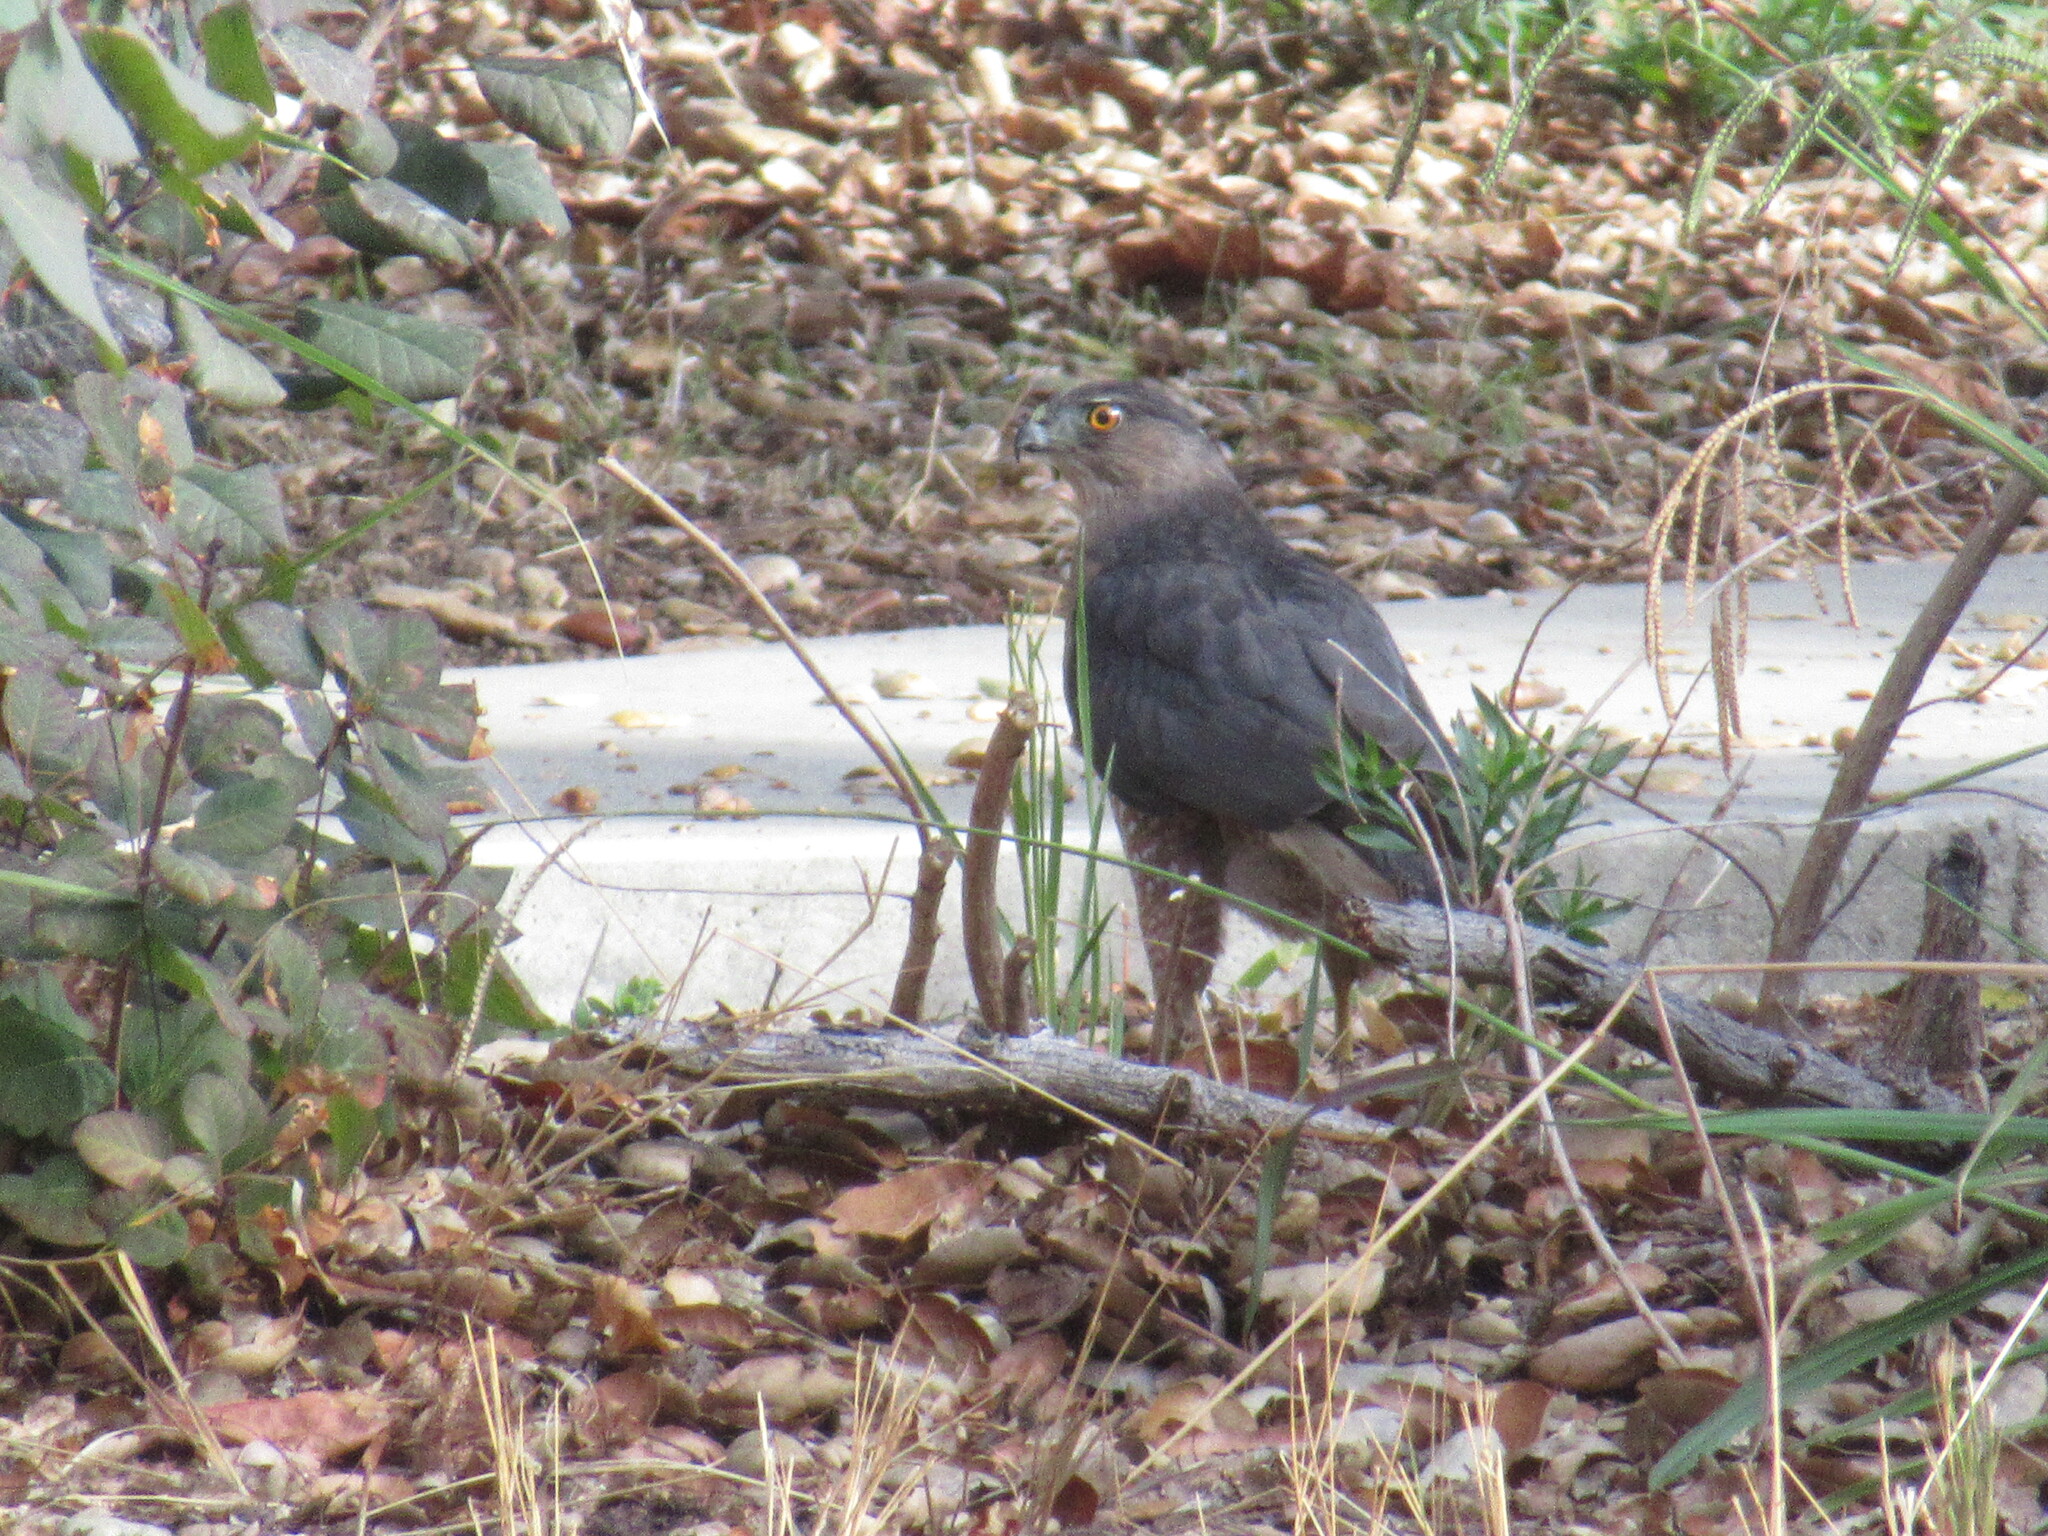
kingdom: Animalia
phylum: Chordata
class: Aves
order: Accipitriformes
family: Accipitridae
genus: Accipiter
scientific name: Accipiter cooperii
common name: Cooper's hawk
